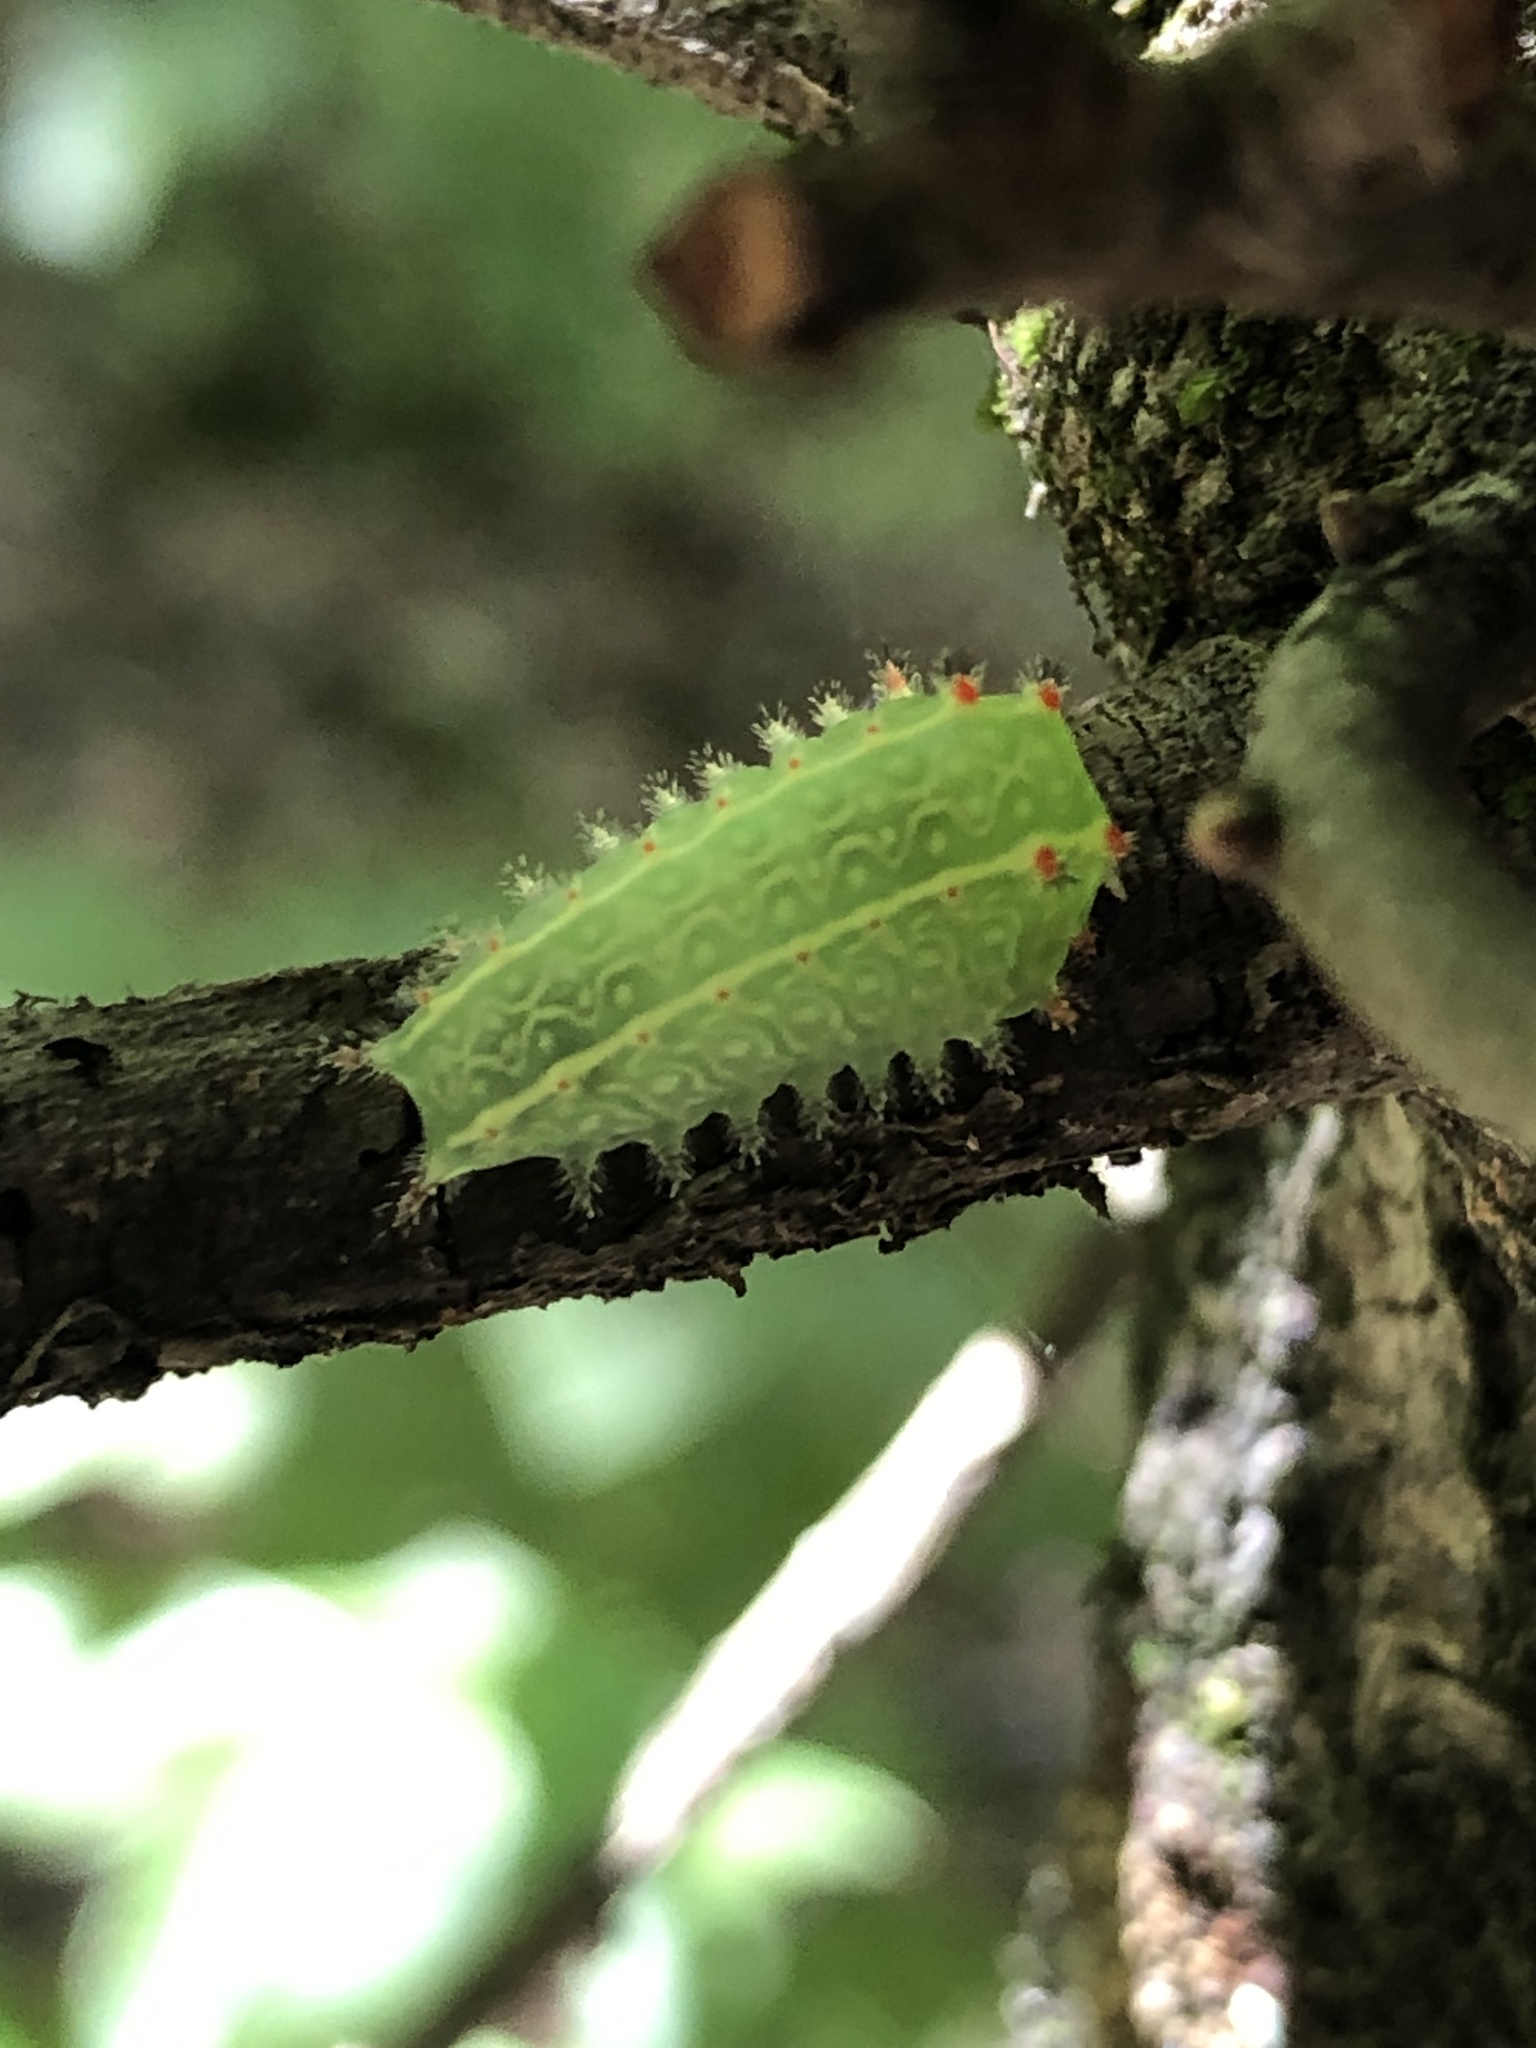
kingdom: Animalia
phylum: Arthropoda
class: Insecta
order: Lepidoptera
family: Limacodidae
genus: Natada
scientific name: Natada nasoni
